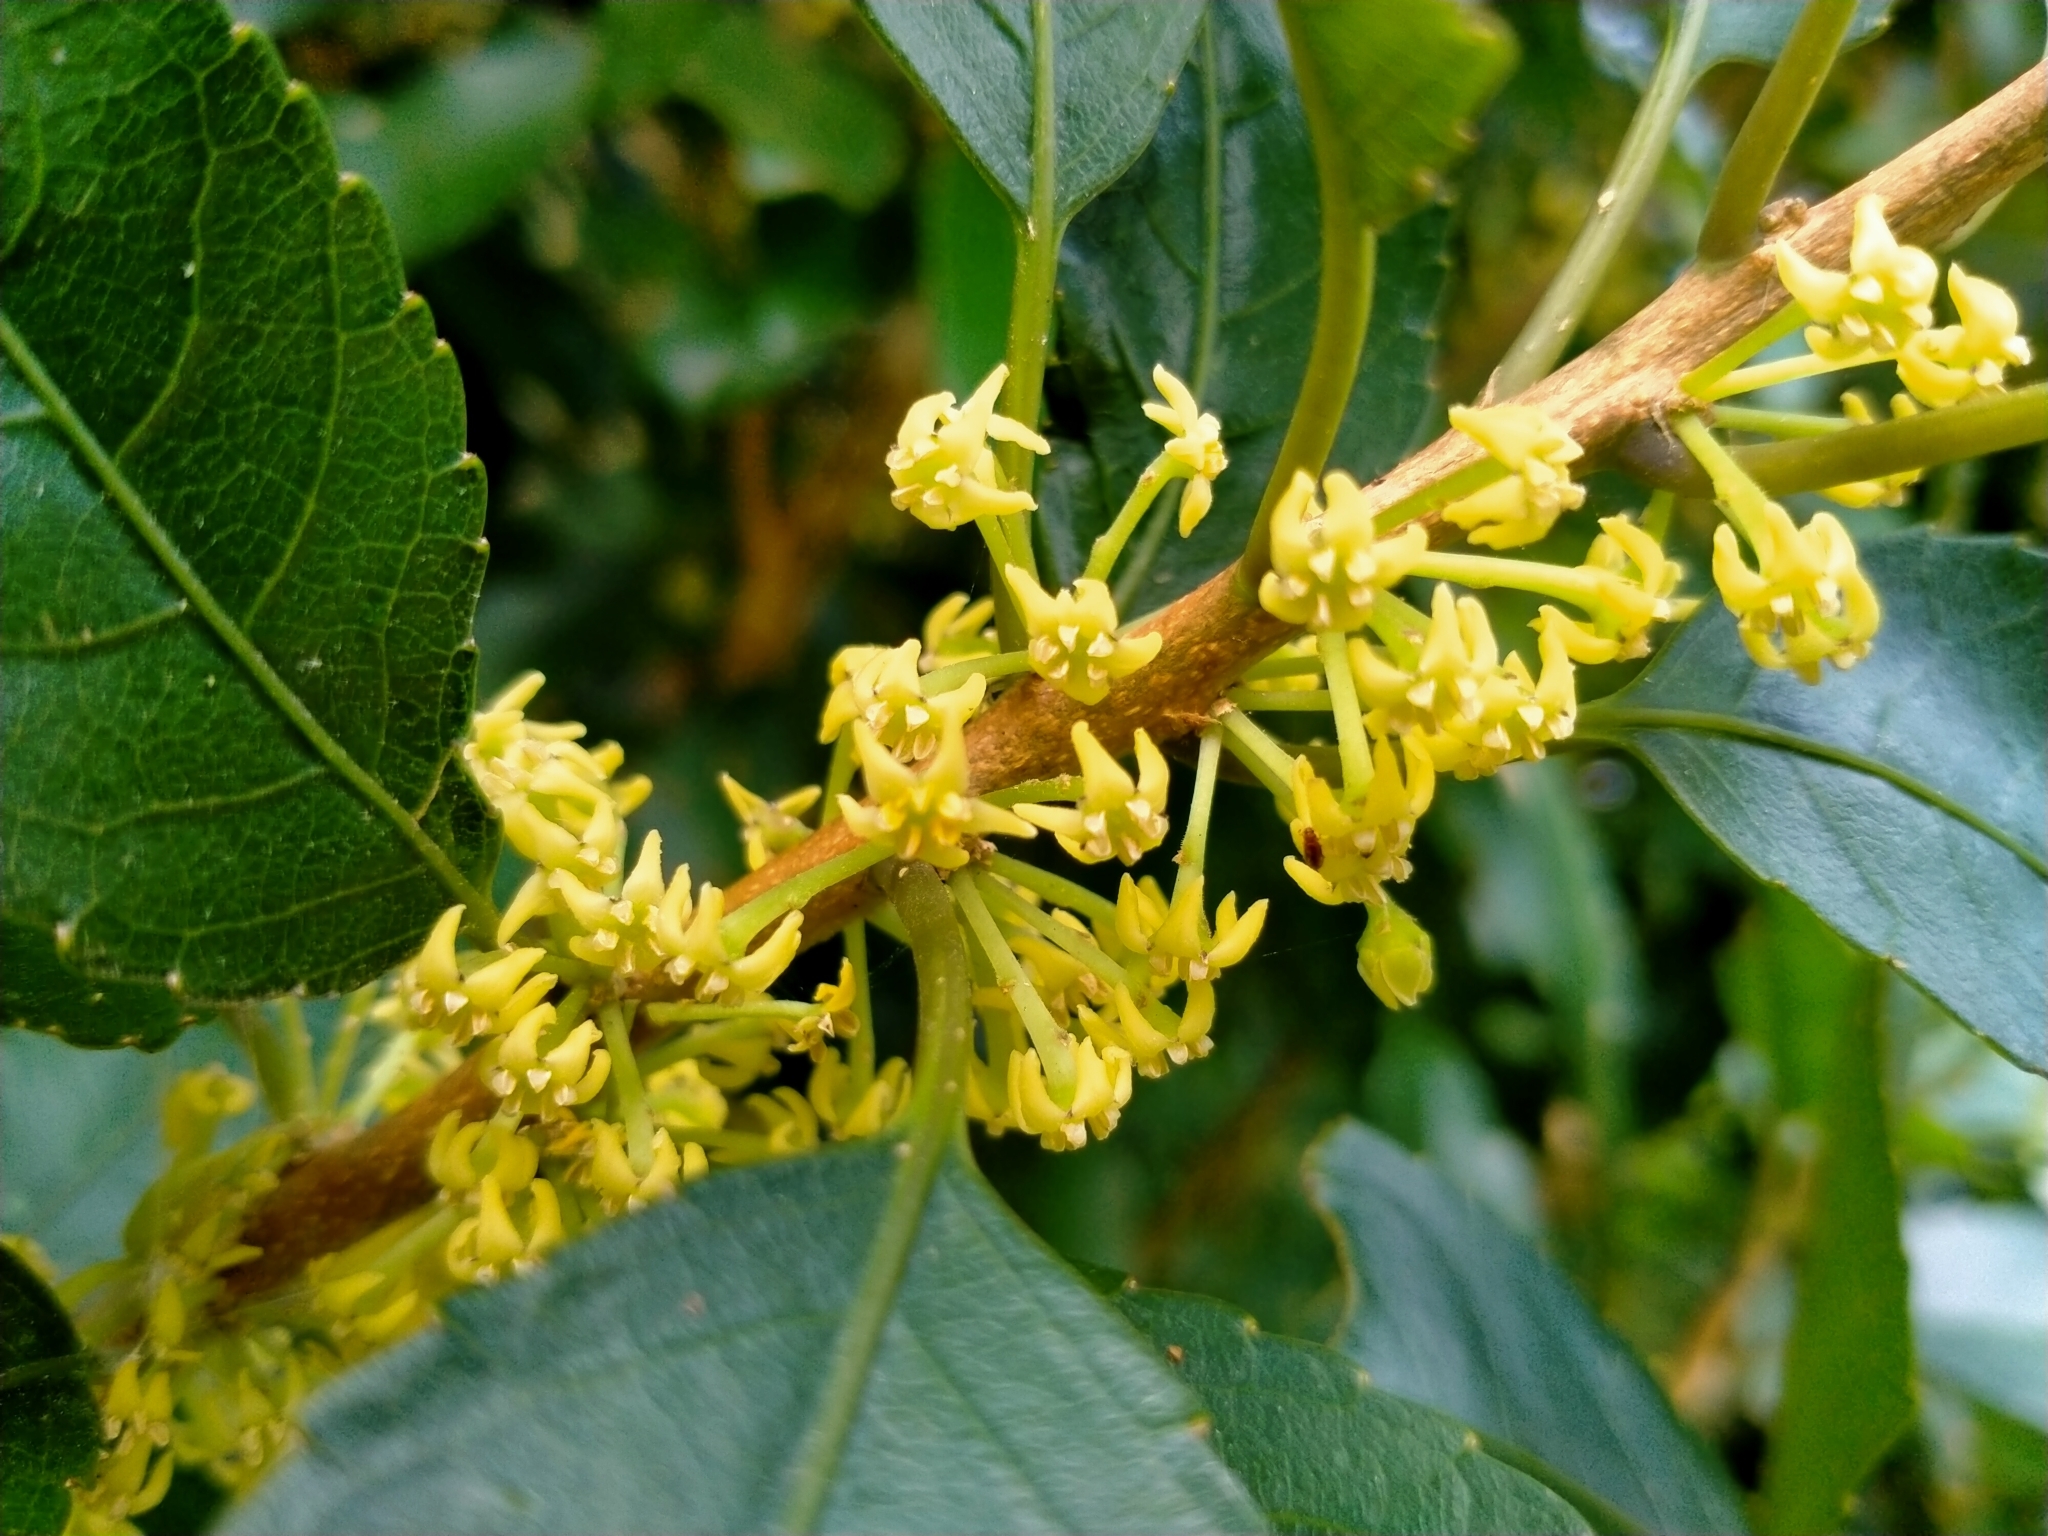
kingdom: Plantae
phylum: Tracheophyta
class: Magnoliopsida
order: Malpighiales
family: Violaceae
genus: Melicytus
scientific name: Melicytus ramiflorus
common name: Mahoe
